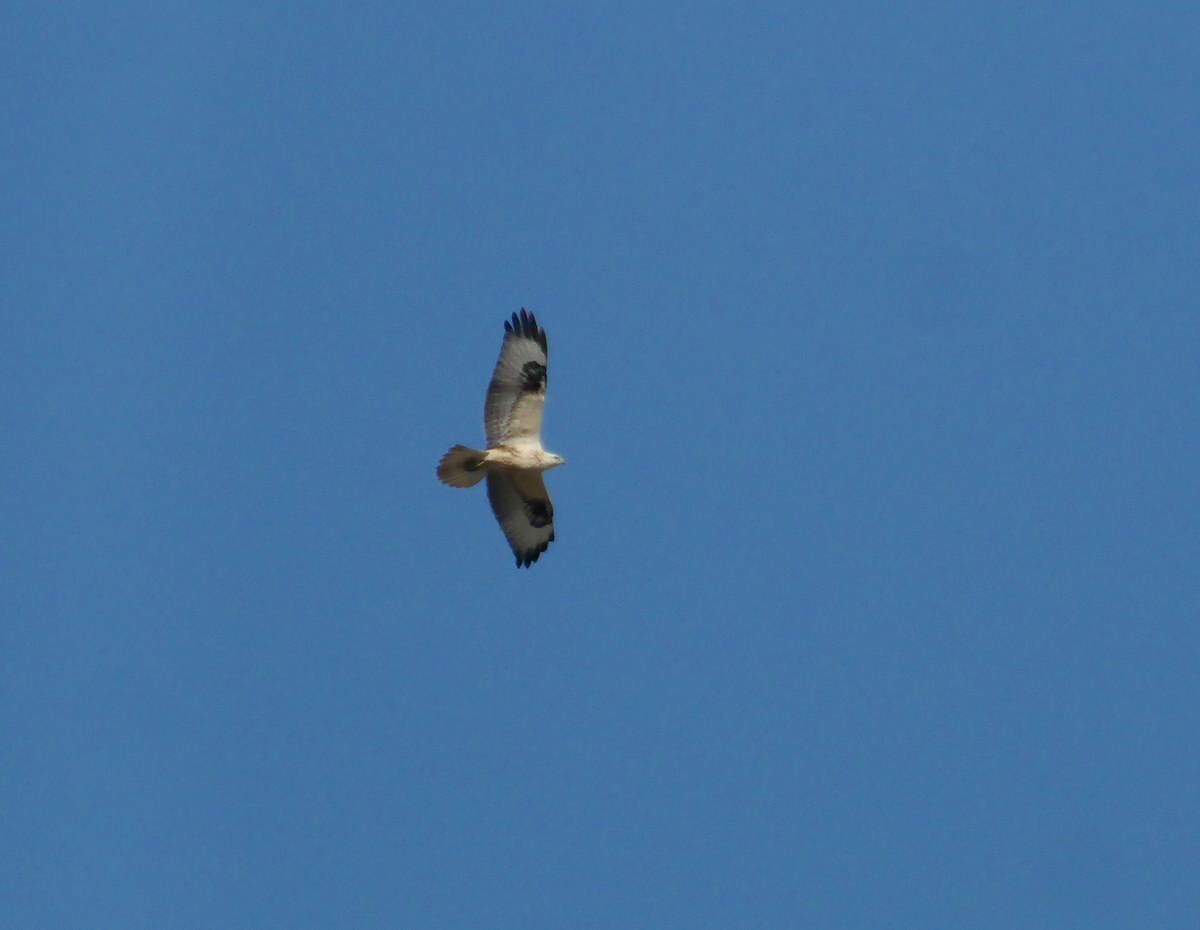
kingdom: Animalia
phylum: Chordata
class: Aves
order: Accipitriformes
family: Accipitridae
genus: Buteo
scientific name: Buteo rufinus
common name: Long-legged buzzard
